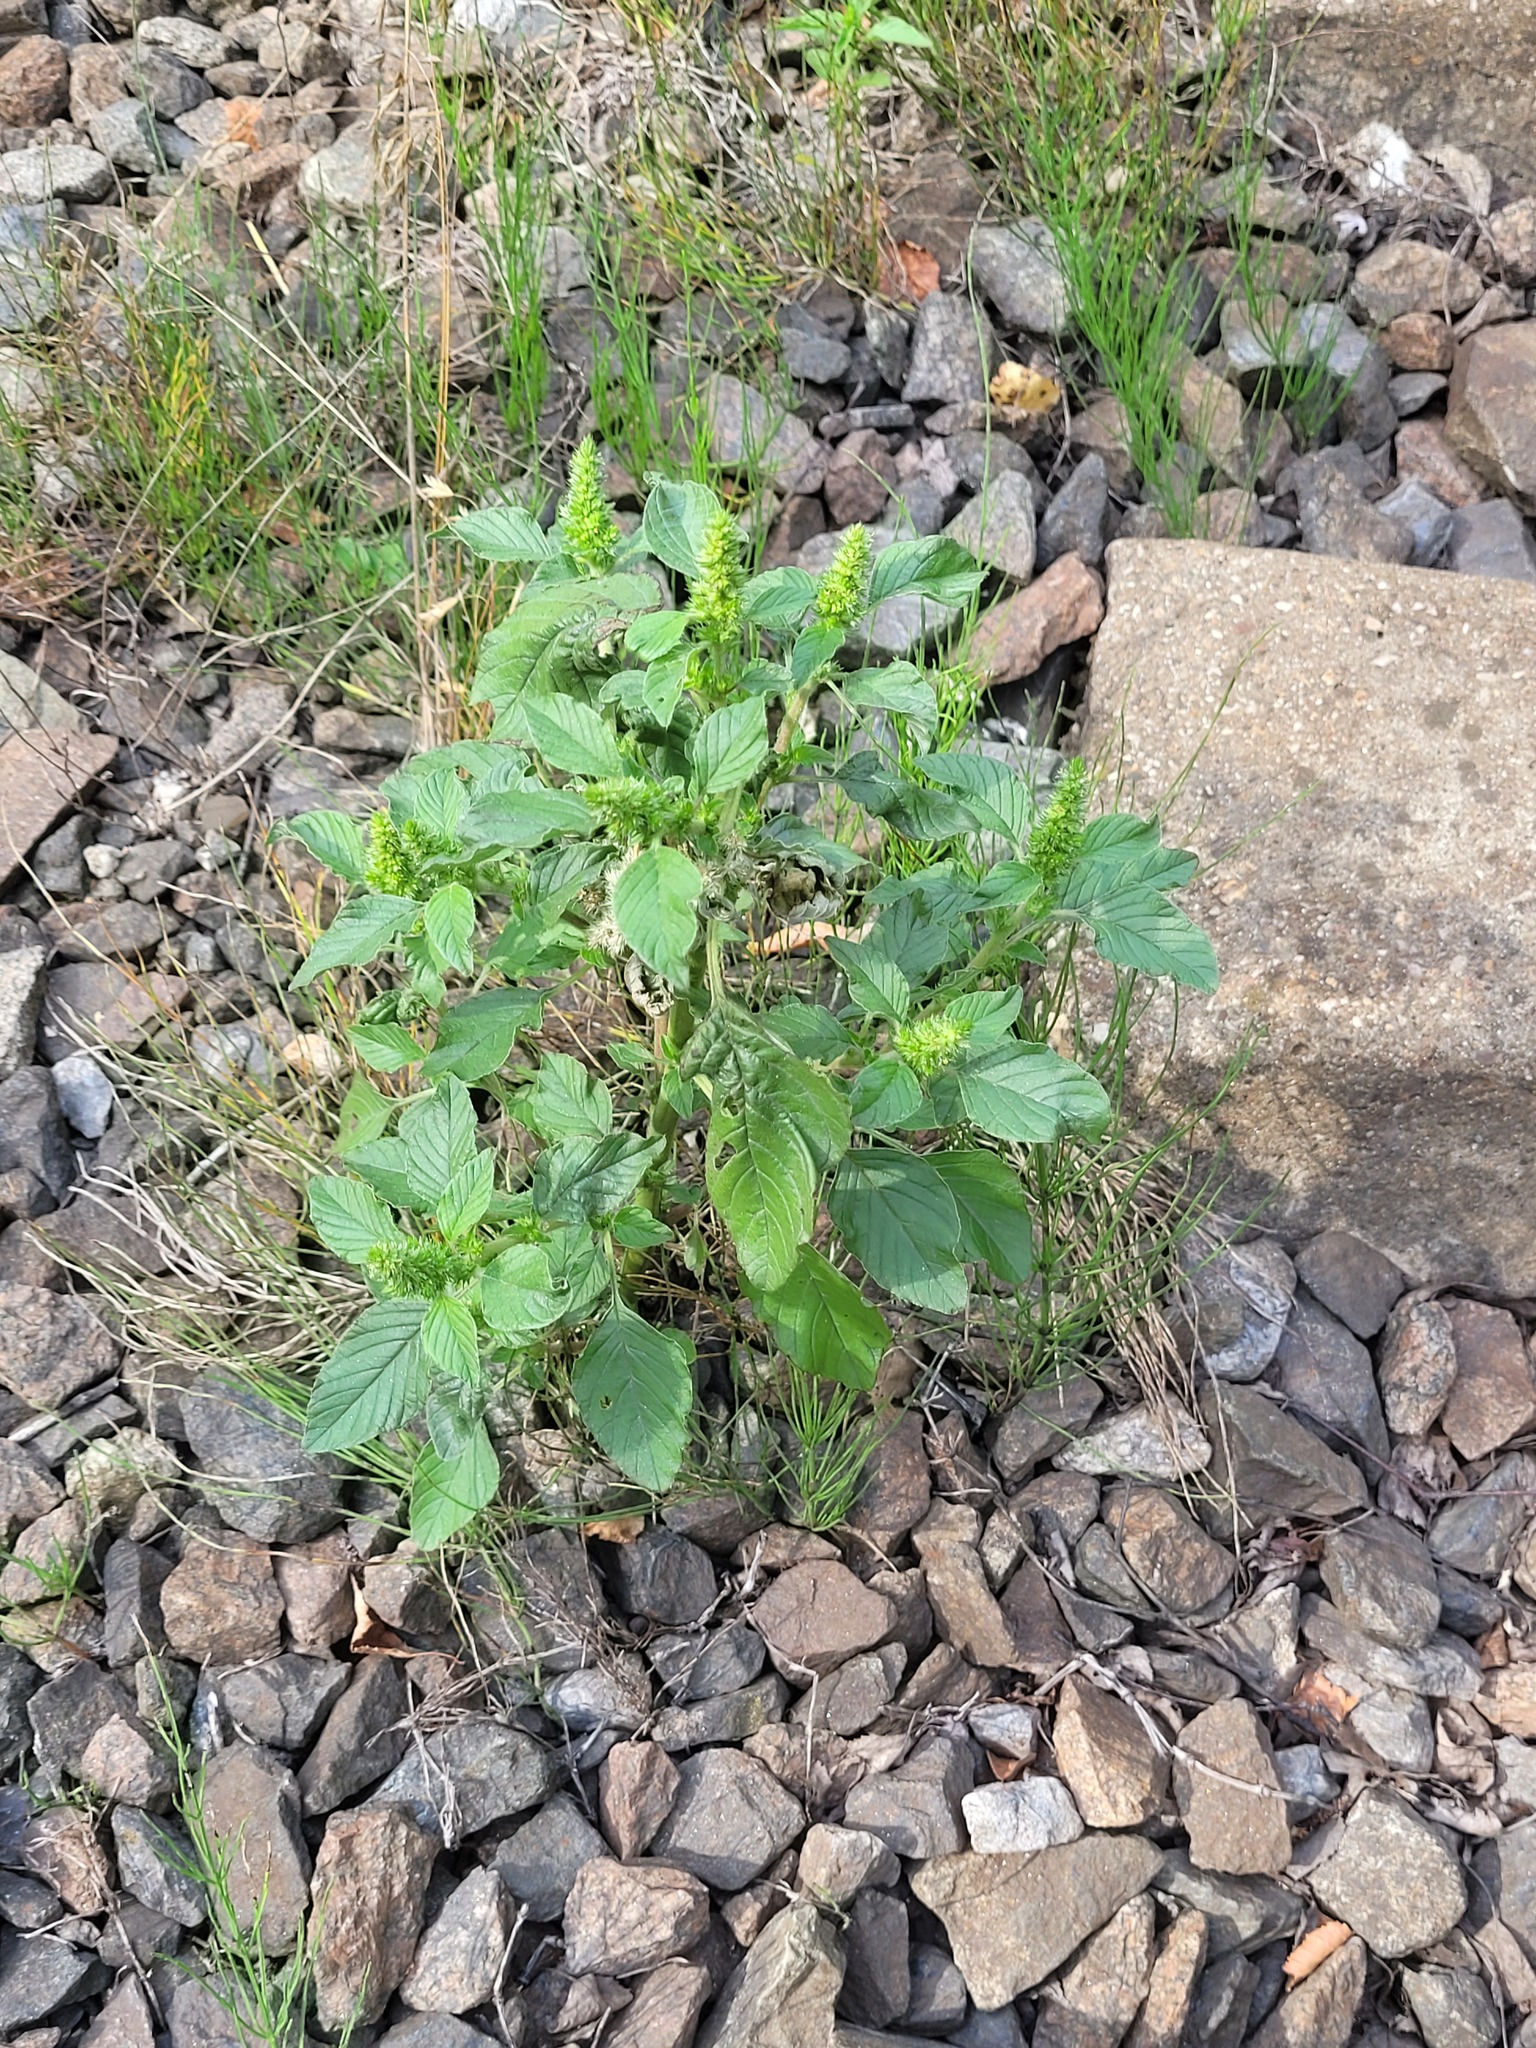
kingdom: Plantae
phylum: Tracheophyta
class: Magnoliopsida
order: Caryophyllales
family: Amaranthaceae
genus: Amaranthus
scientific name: Amaranthus retroflexus
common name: Redroot amaranth
